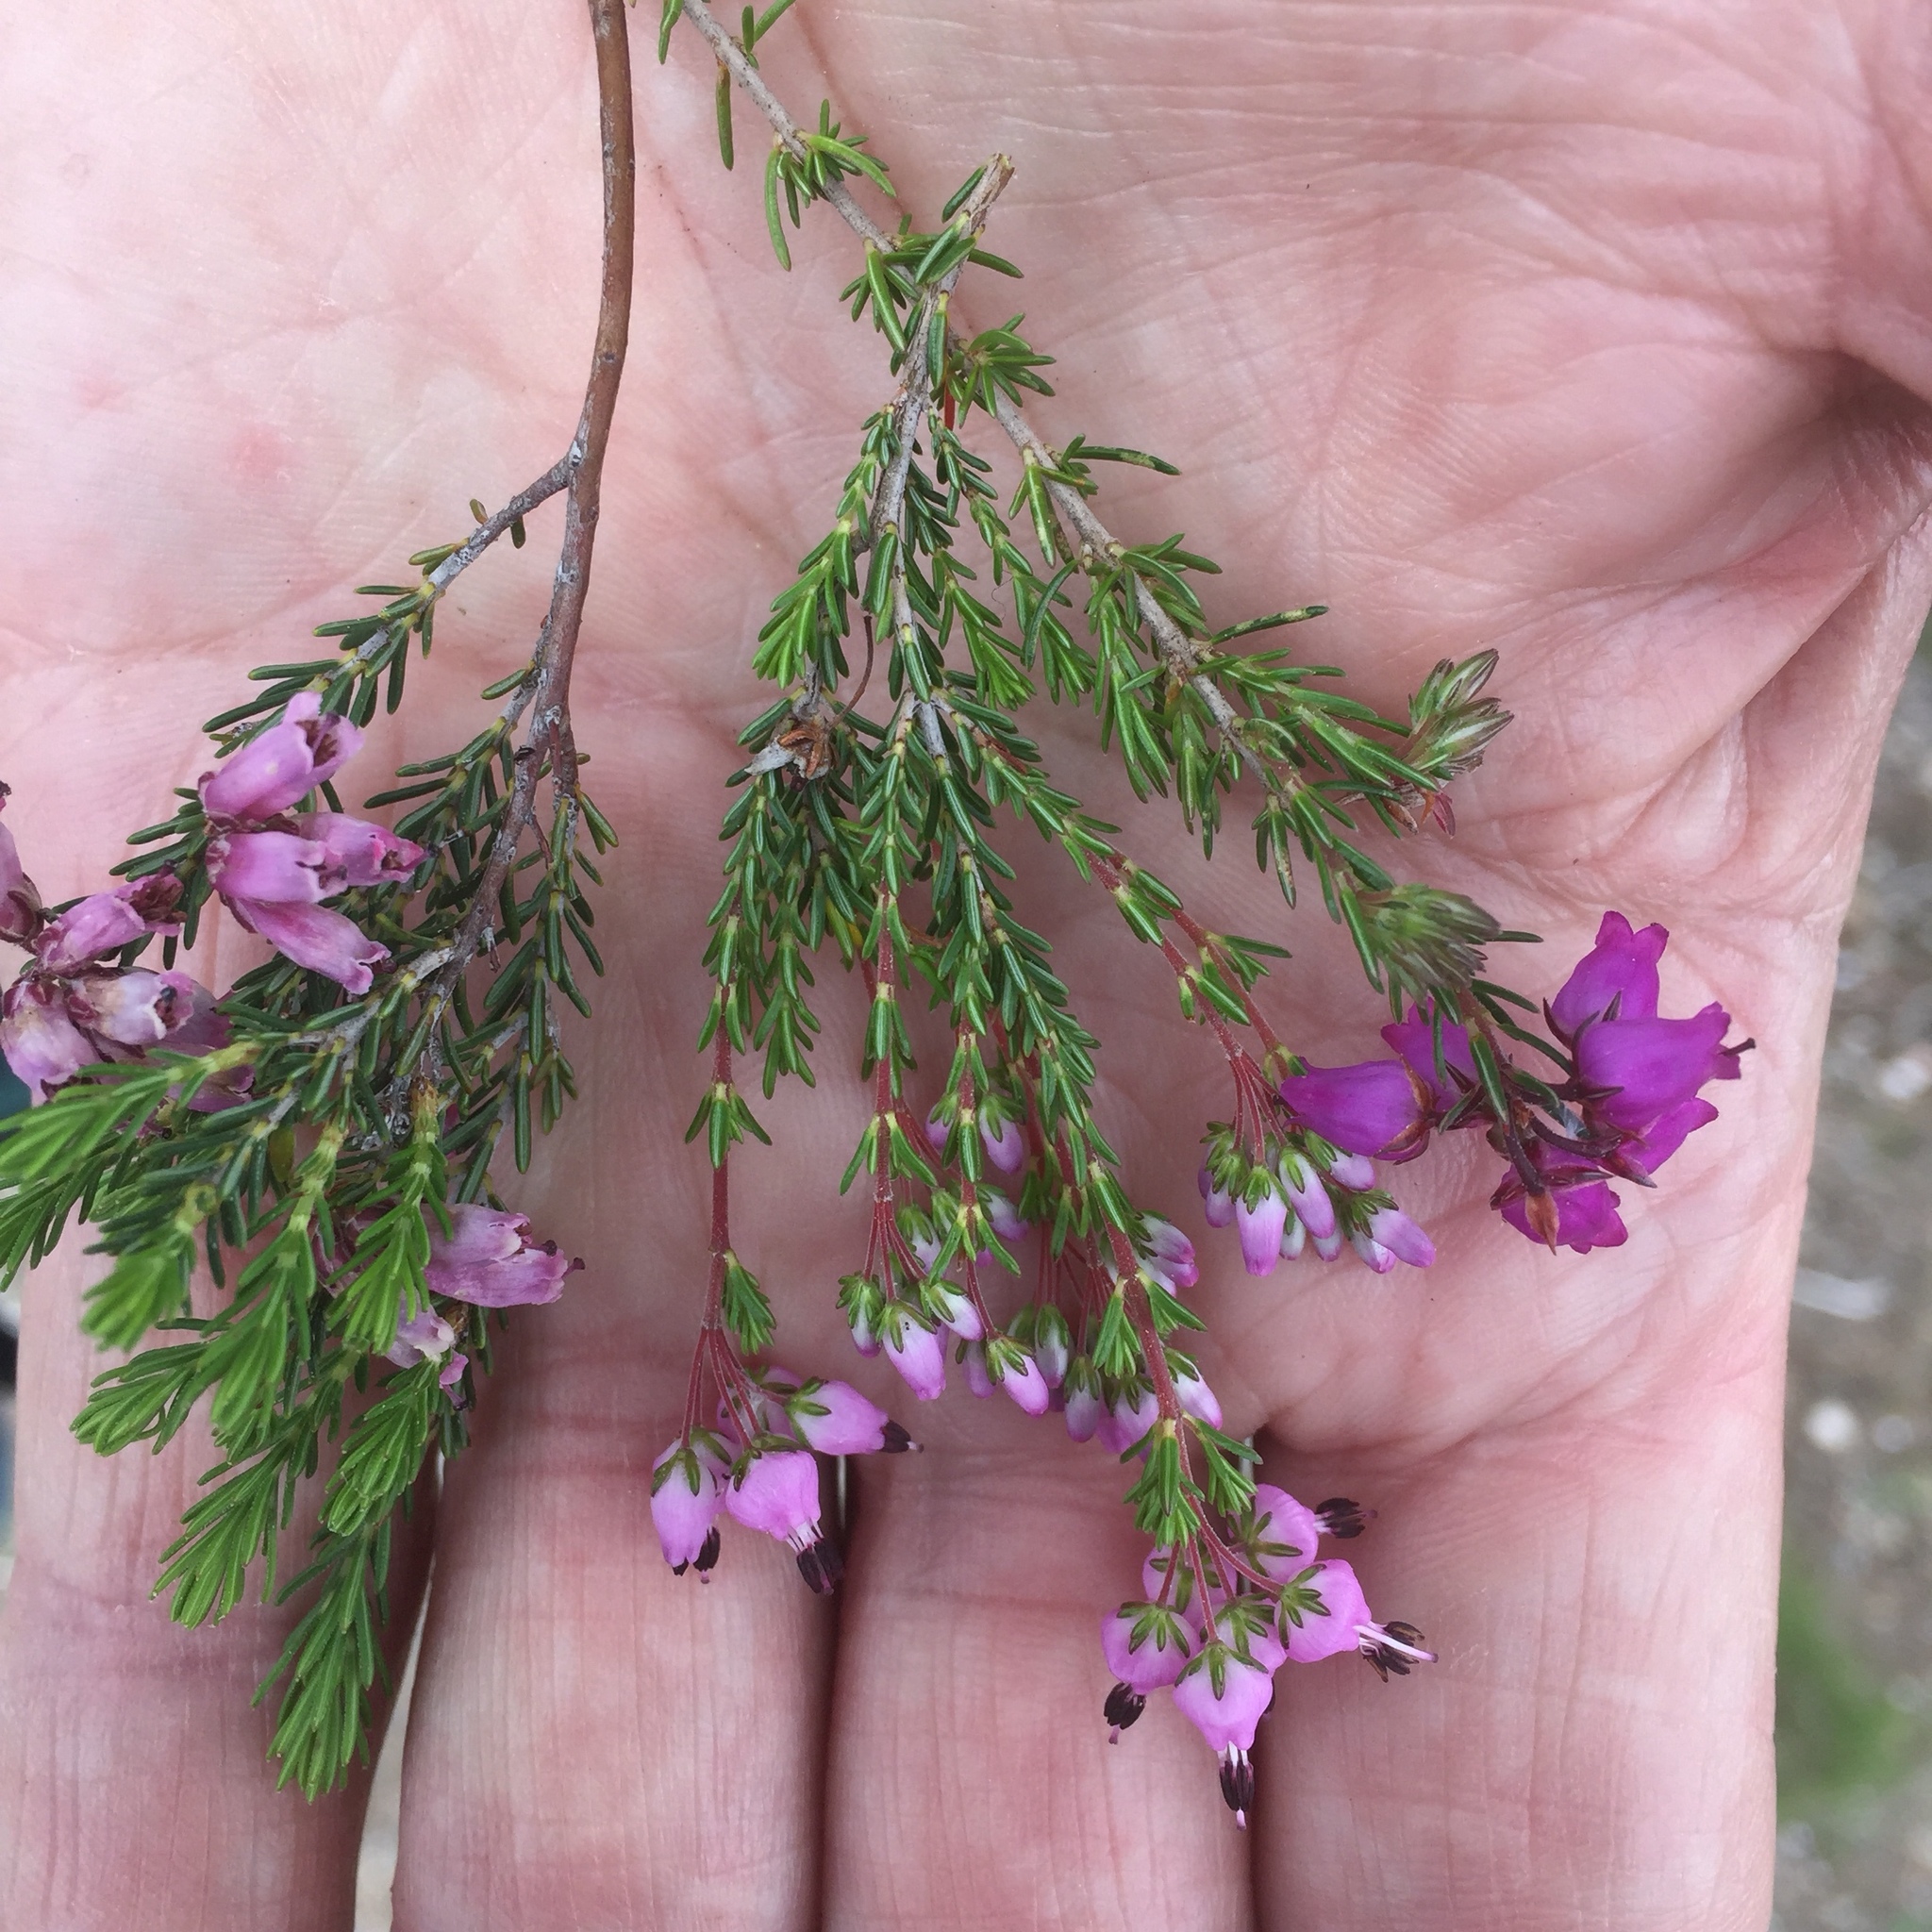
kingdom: Plantae
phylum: Tracheophyta
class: Magnoliopsida
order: Ericales
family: Ericaceae
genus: Erica
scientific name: Erica umbellata
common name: Dwarf spanish heath
